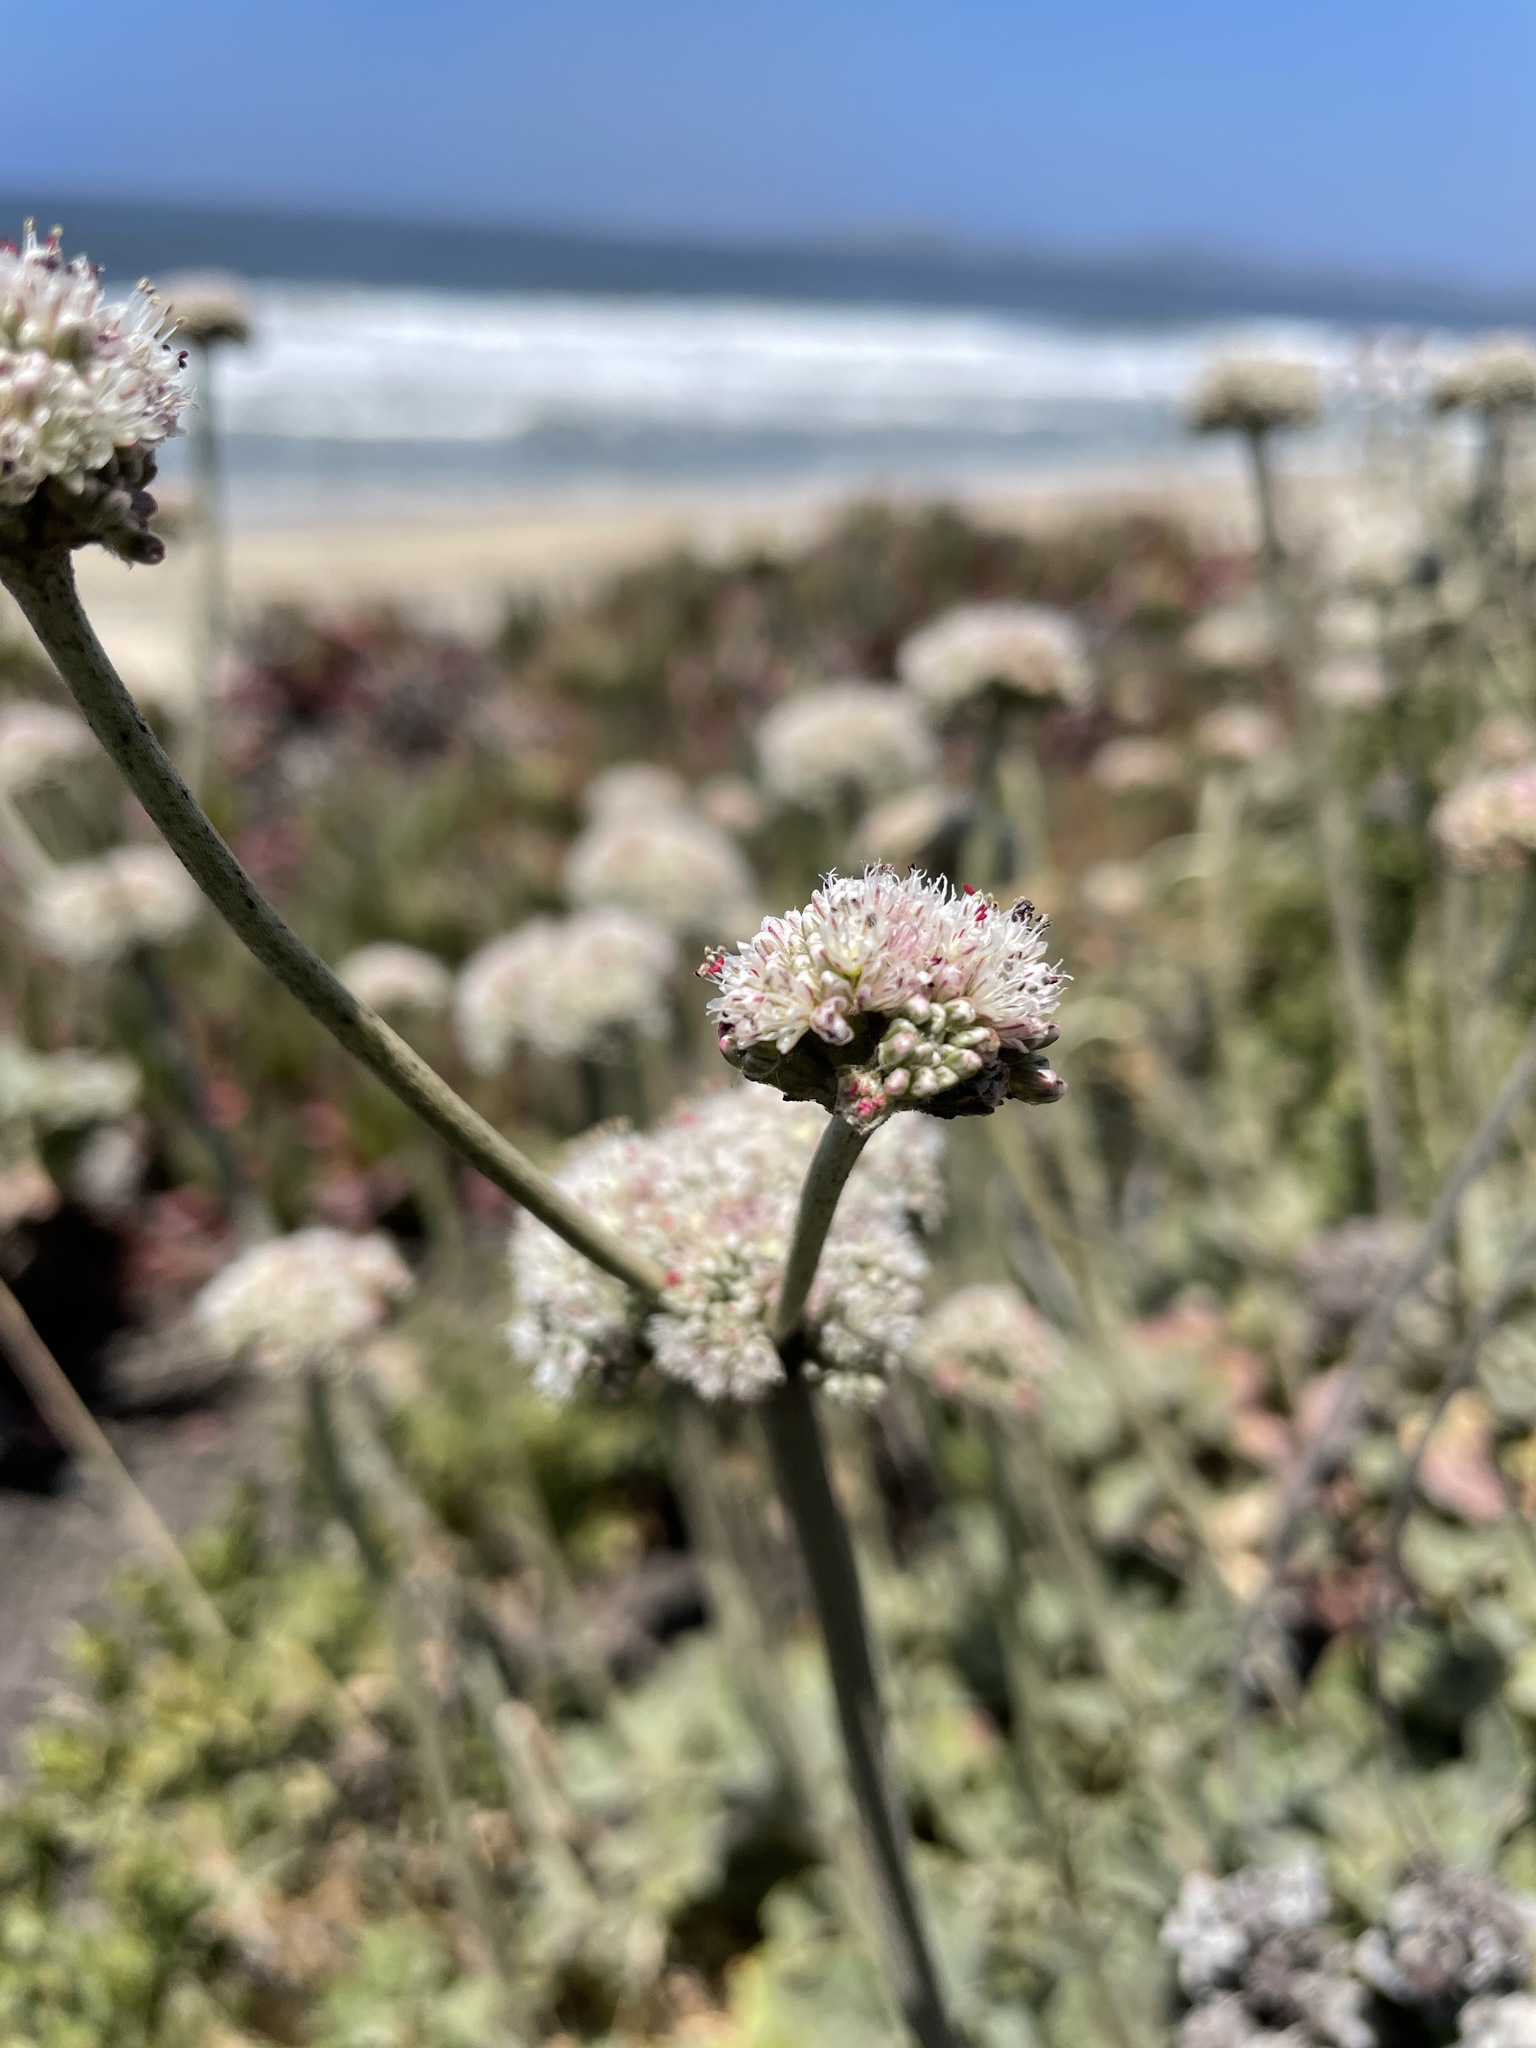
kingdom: Plantae
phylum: Tracheophyta
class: Magnoliopsida
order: Caryophyllales
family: Polygonaceae
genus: Eriogonum
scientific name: Eriogonum latifolium
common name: Seaside wild buckwheat
